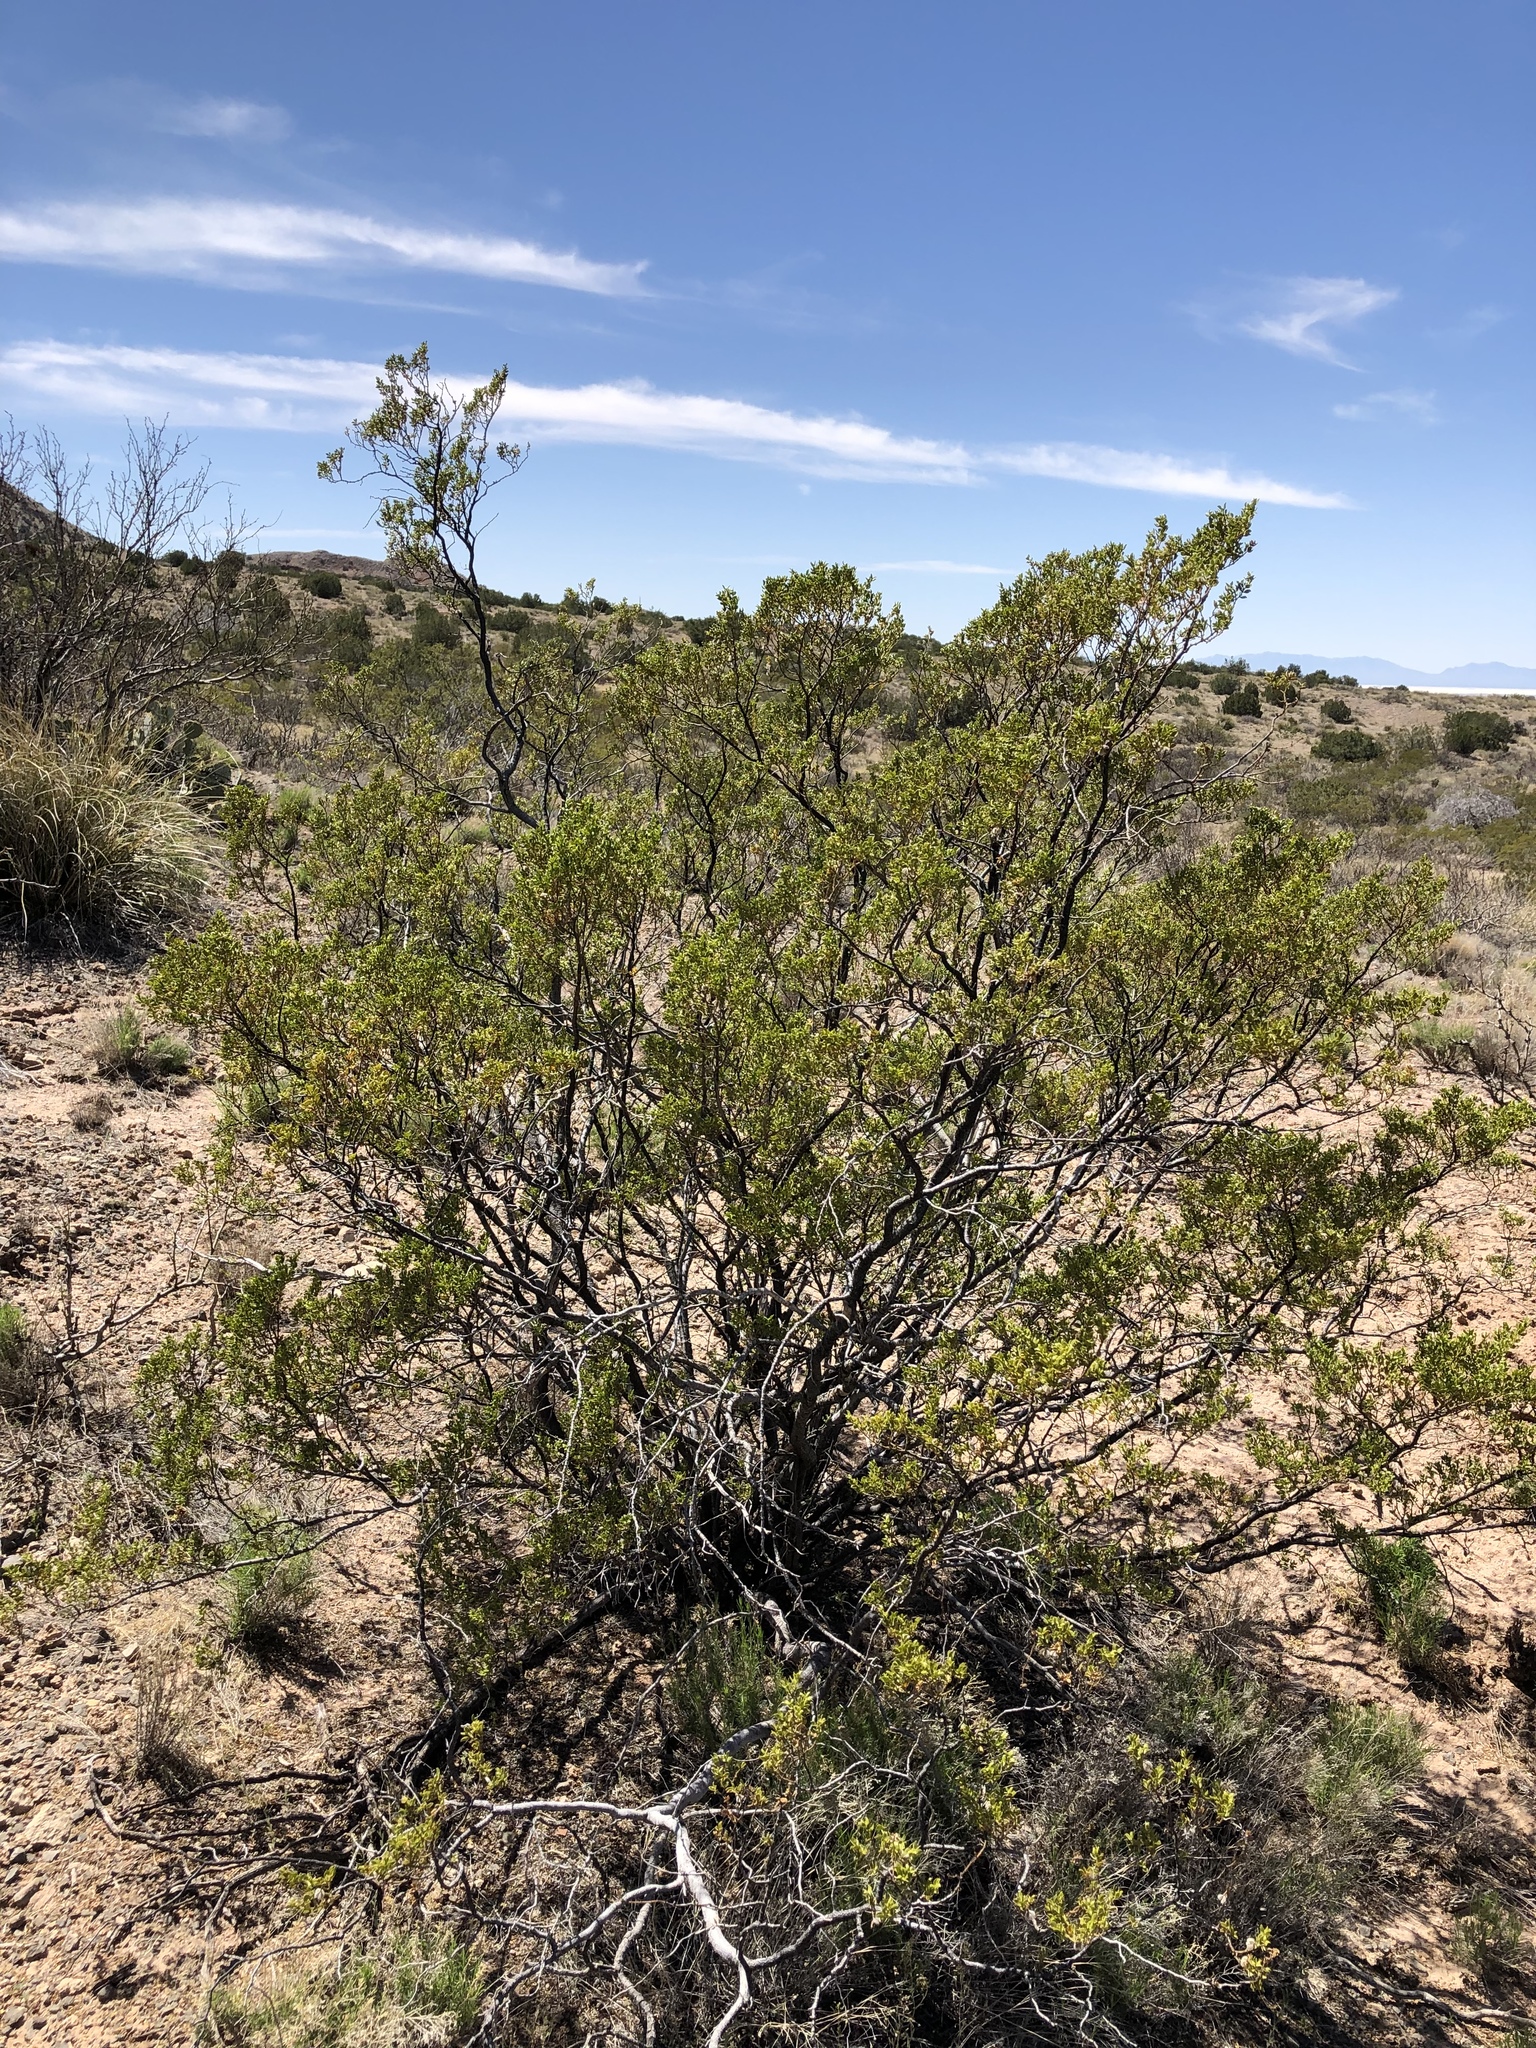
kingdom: Plantae
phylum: Tracheophyta
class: Magnoliopsida
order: Zygophyllales
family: Zygophyllaceae
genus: Larrea
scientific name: Larrea tridentata
